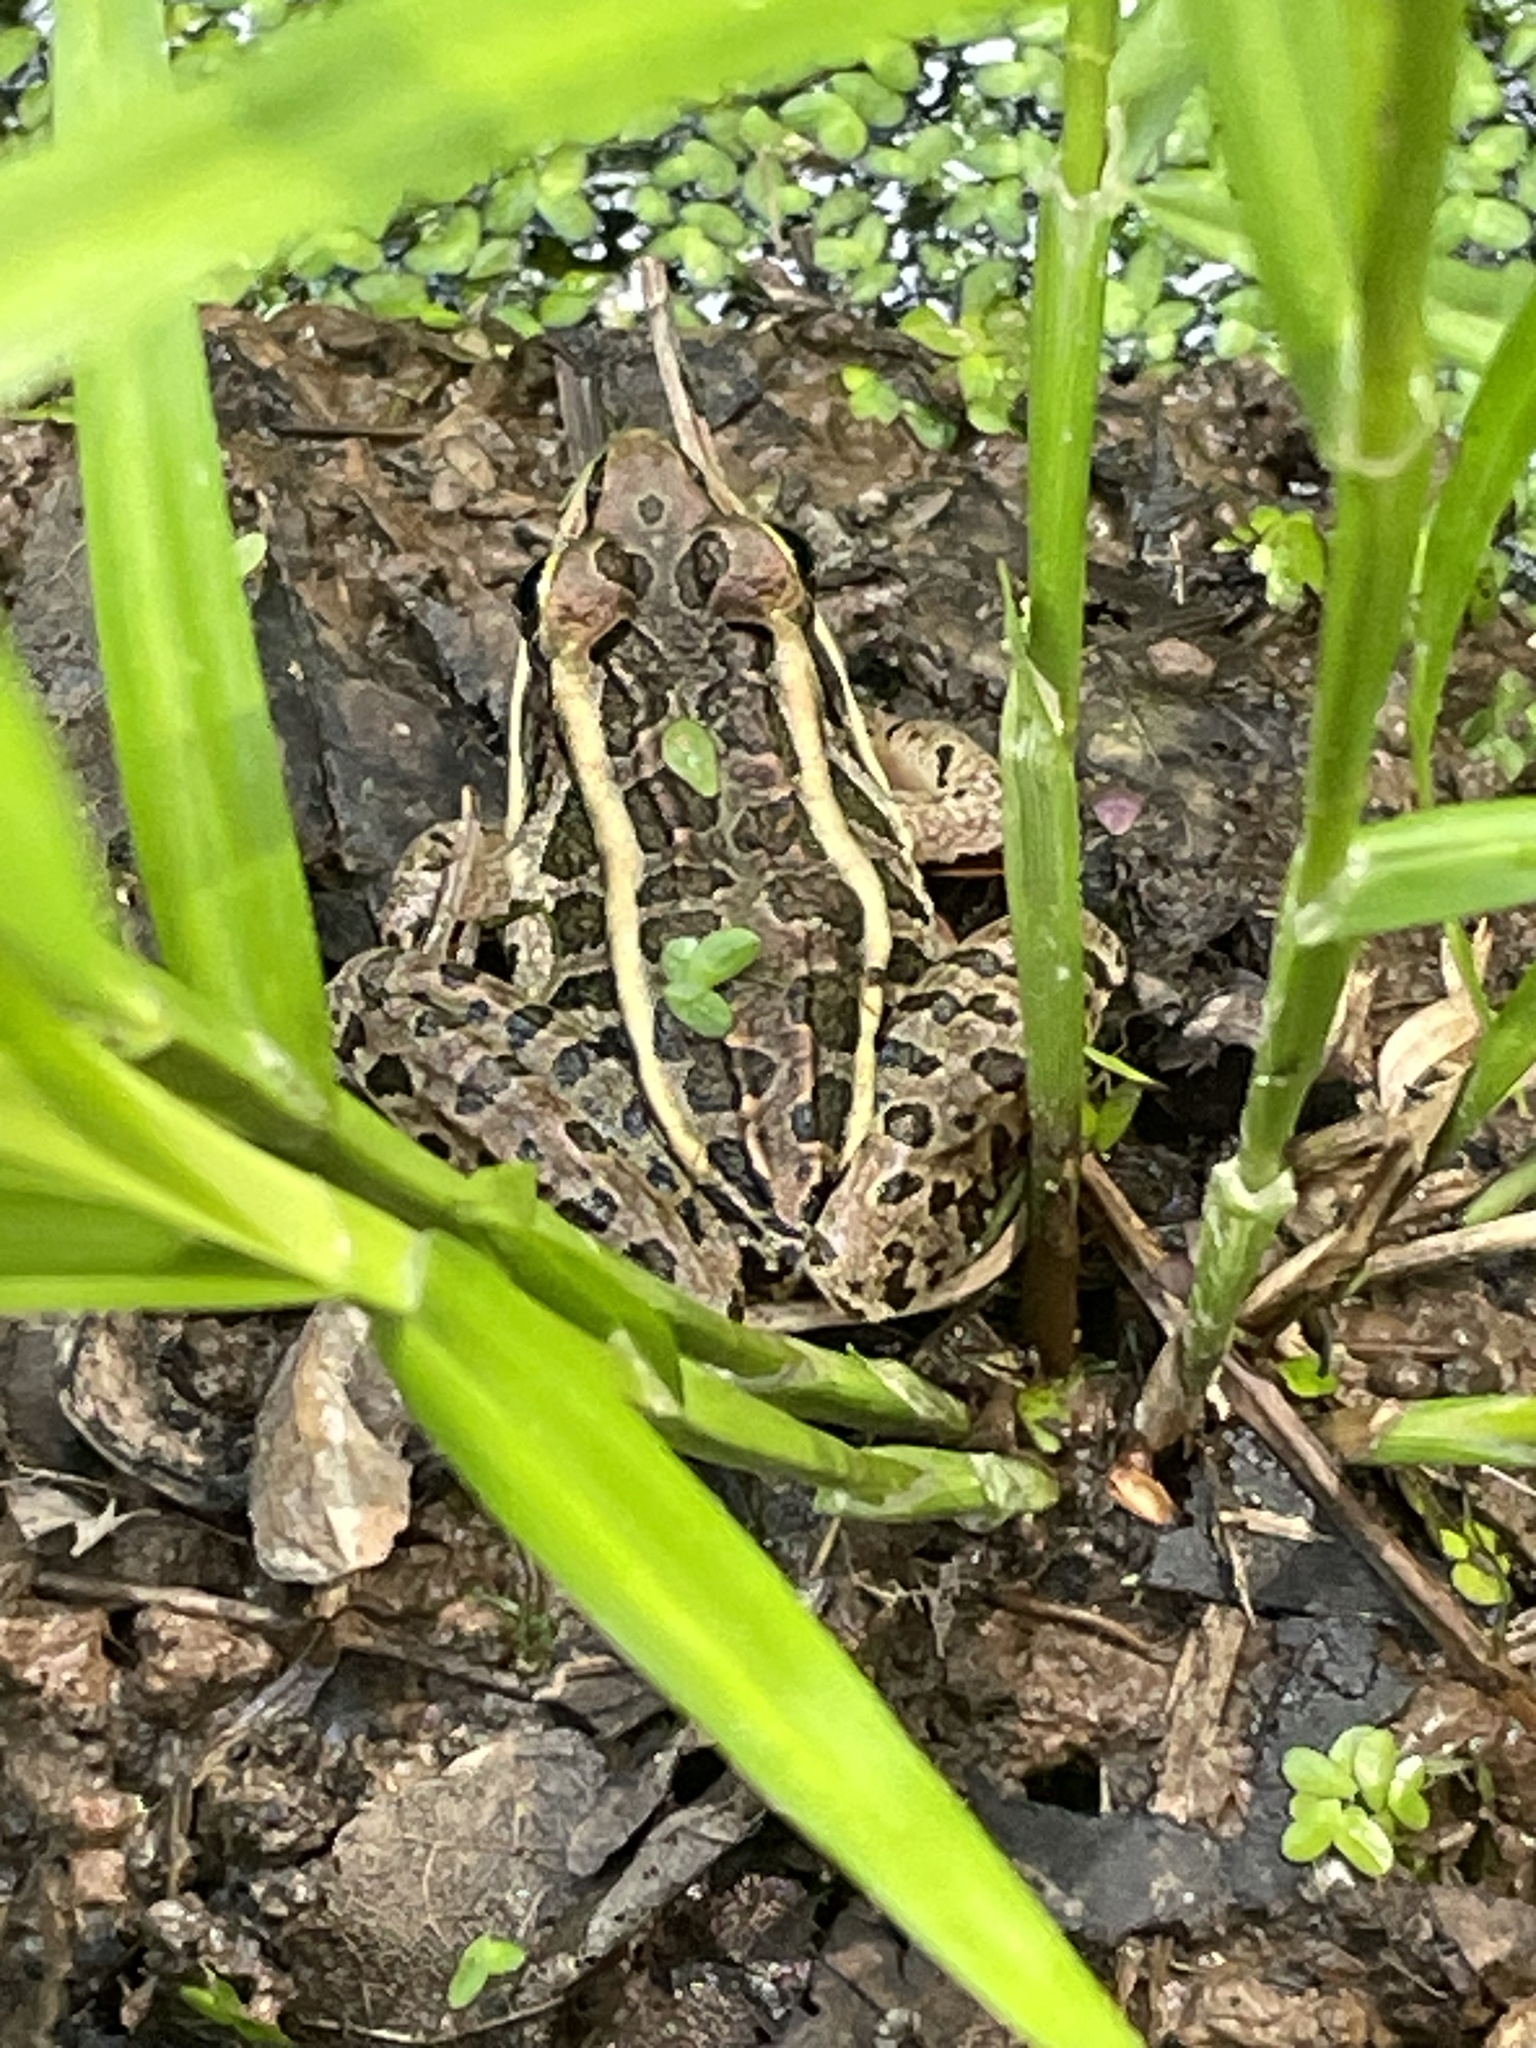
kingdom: Animalia
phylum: Chordata
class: Amphibia
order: Anura
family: Ranidae
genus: Lithobates
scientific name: Lithobates palustris
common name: Pickerel frog
